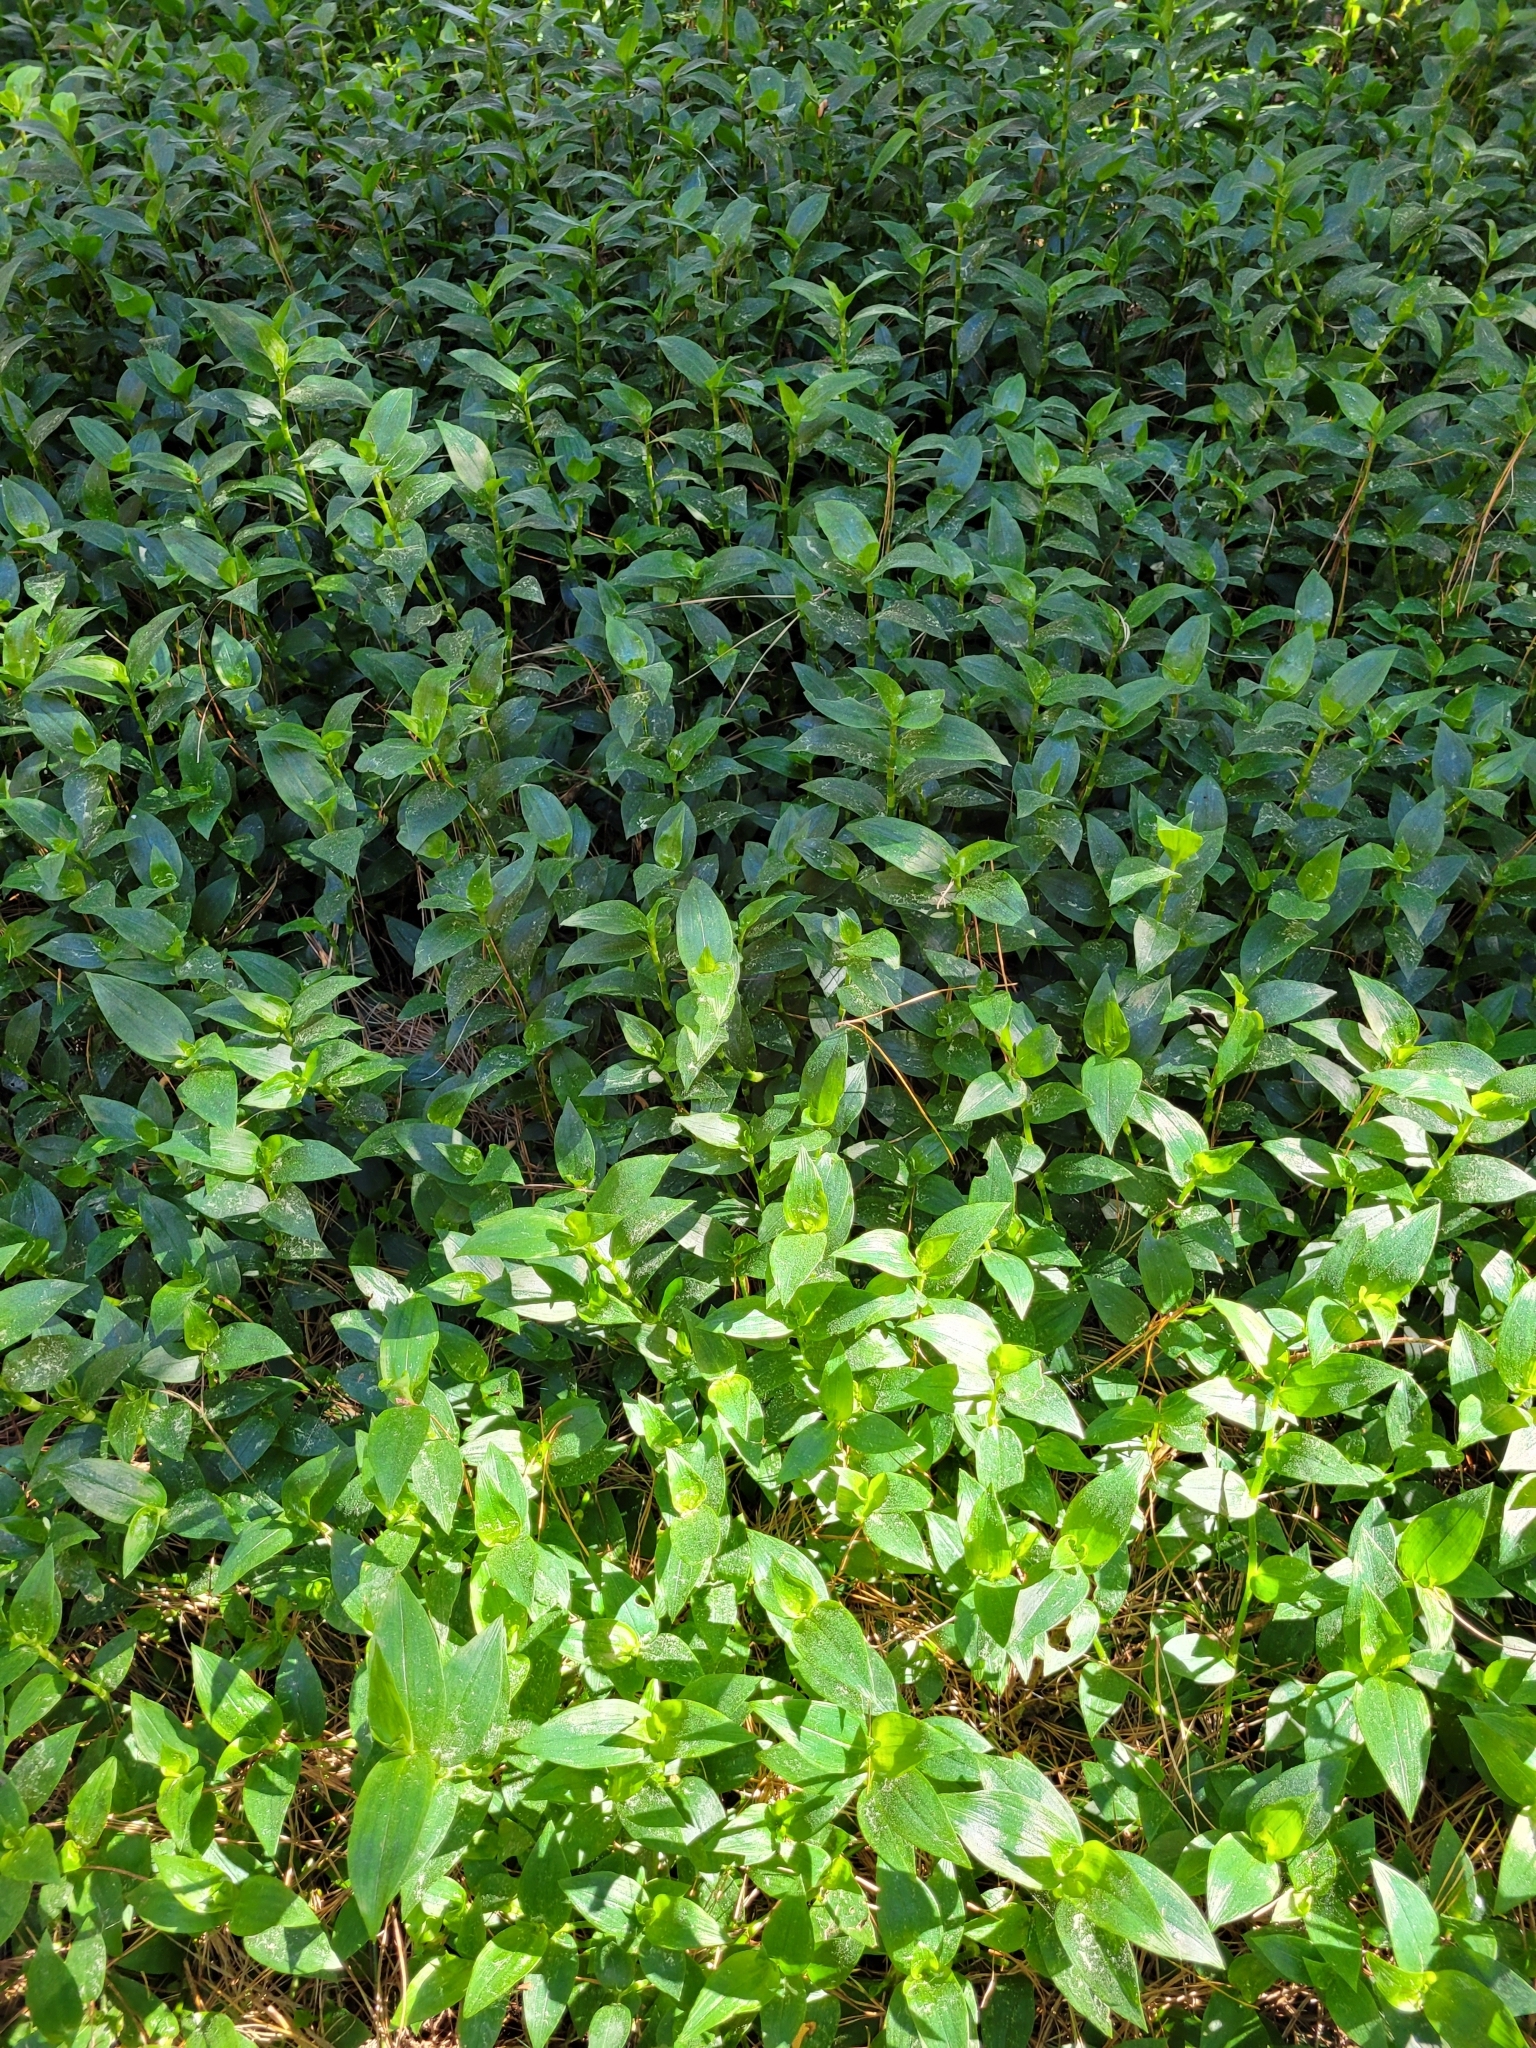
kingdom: Plantae
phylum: Tracheophyta
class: Liliopsida
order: Commelinales
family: Commelinaceae
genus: Tradescantia
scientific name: Tradescantia fluminensis
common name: Wandering-jew
